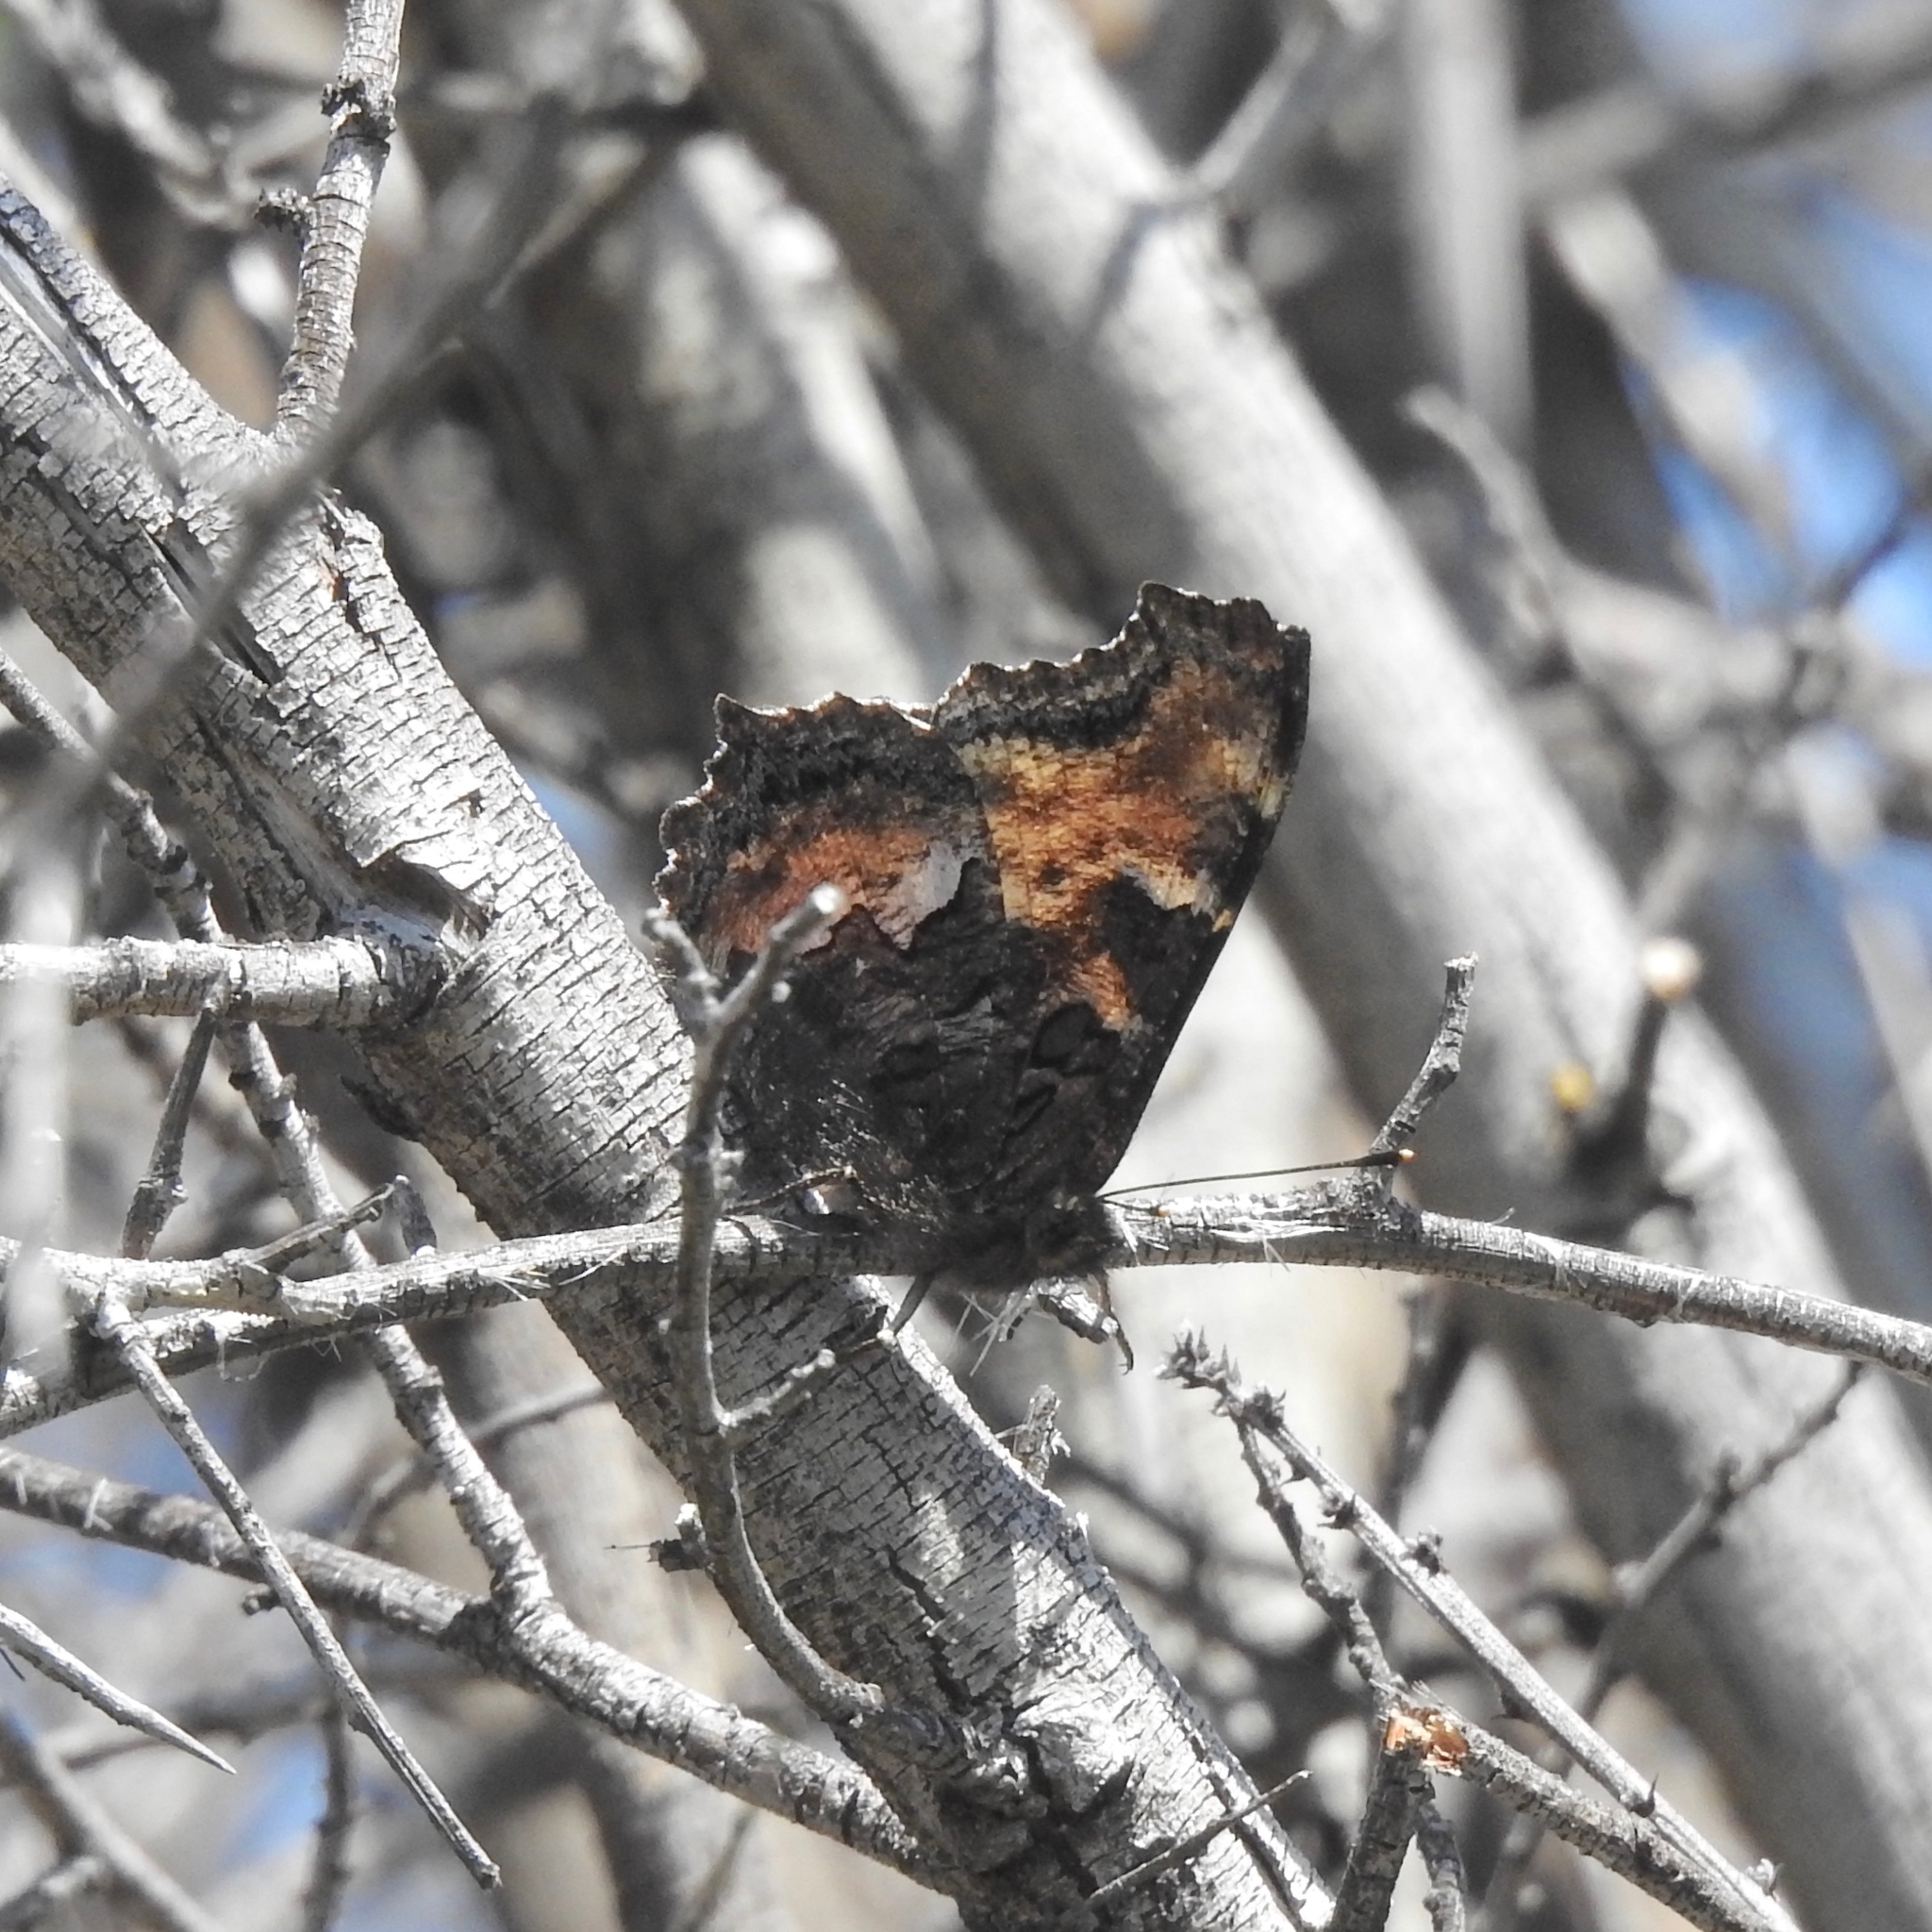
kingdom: Animalia
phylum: Arthropoda
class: Insecta
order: Lepidoptera
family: Nymphalidae
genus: Nymphalis
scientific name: Nymphalis californica
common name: California tortoiseshell
